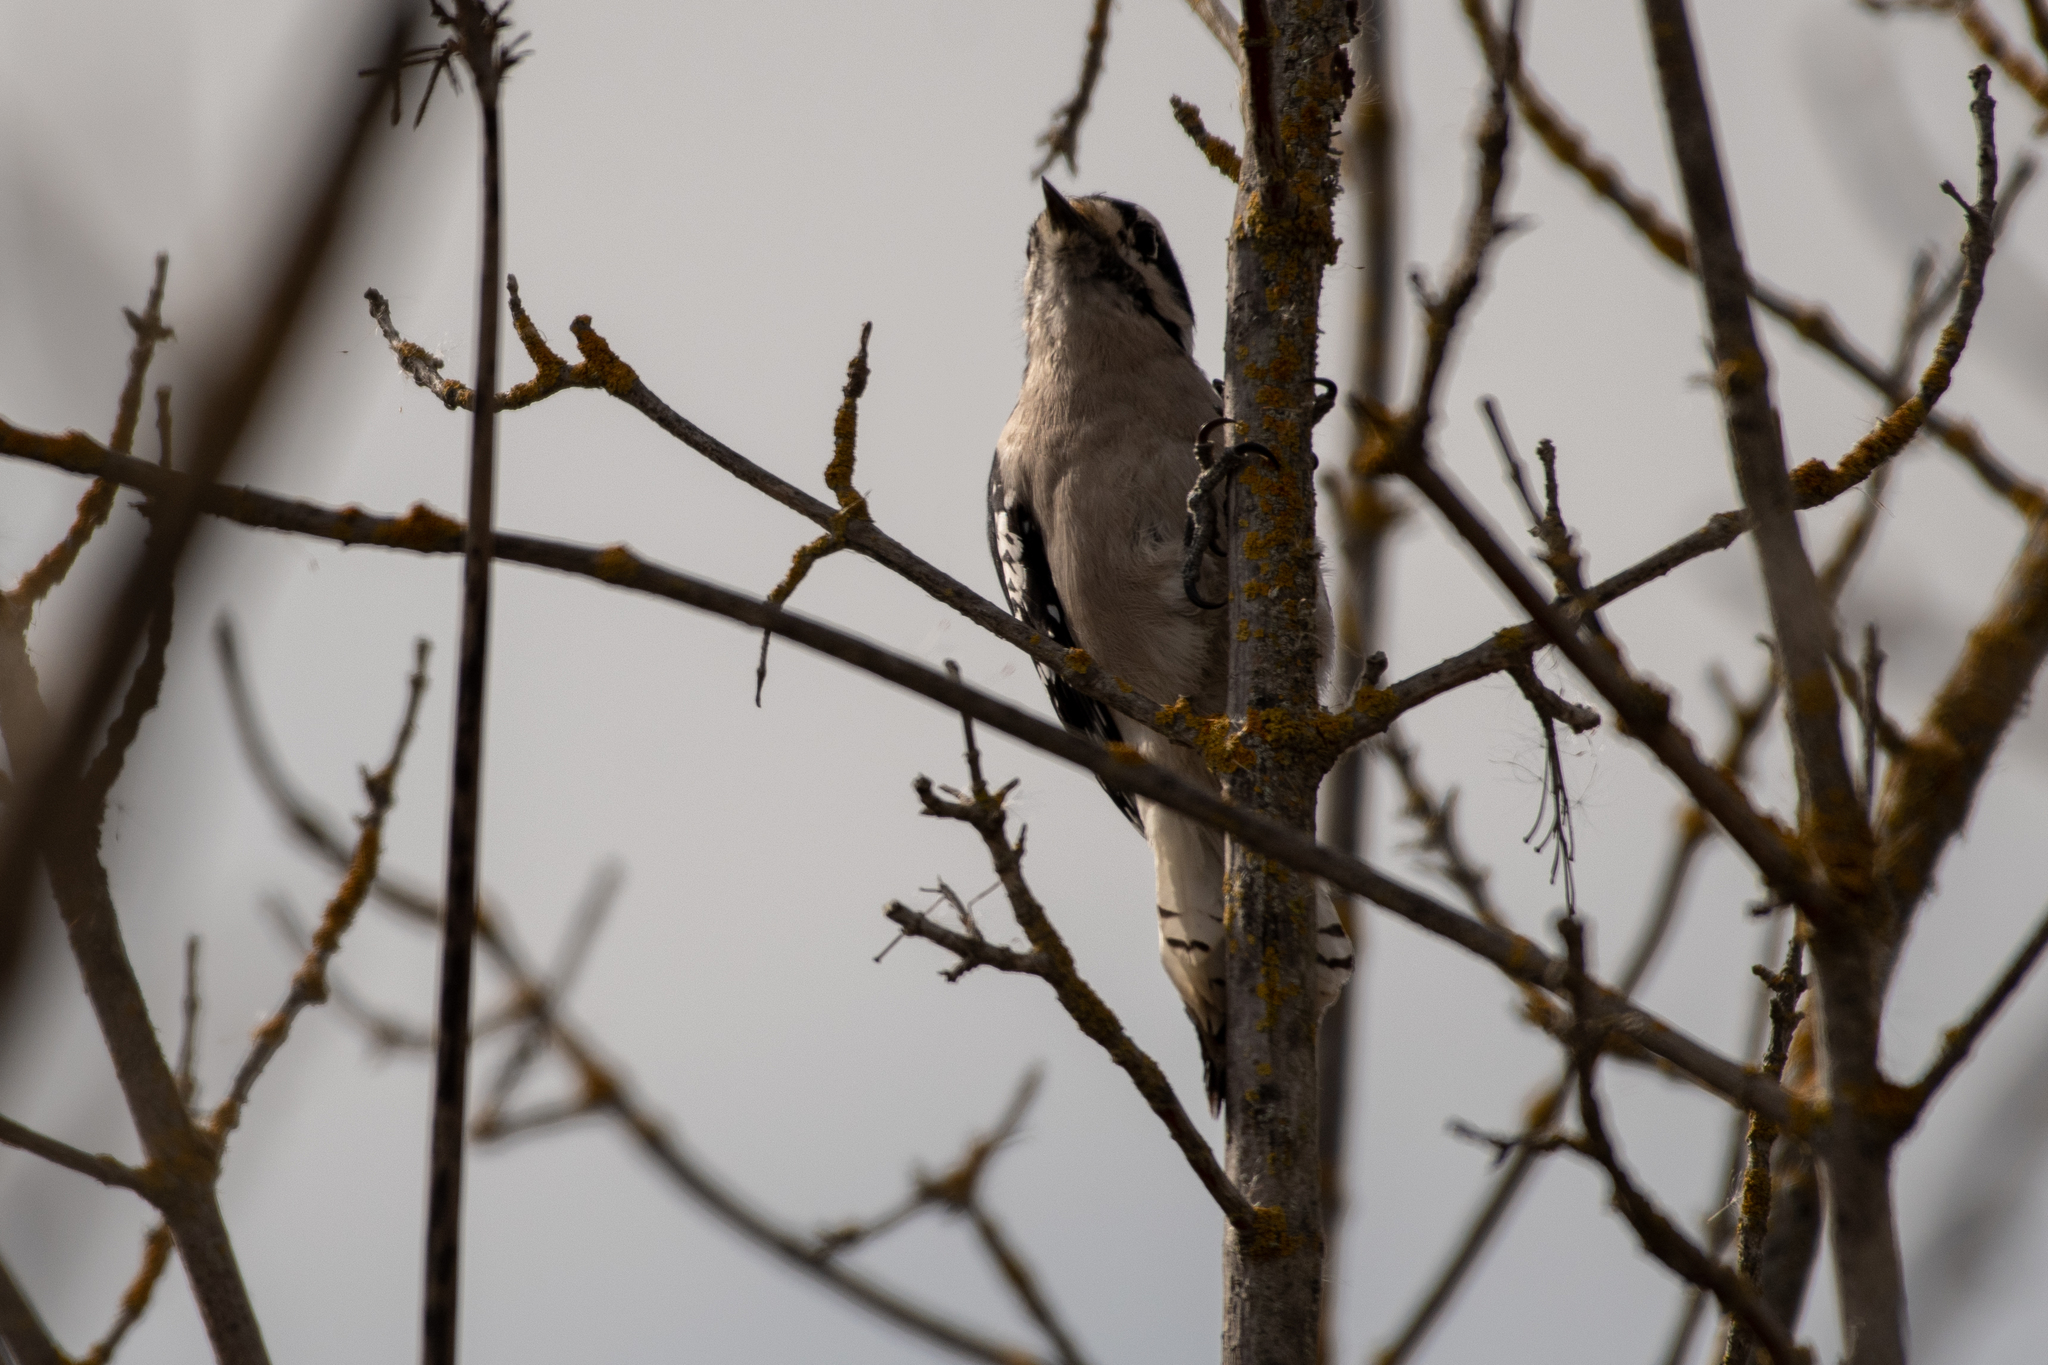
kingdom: Animalia
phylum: Chordata
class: Aves
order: Piciformes
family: Picidae
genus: Dryobates
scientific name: Dryobates pubescens
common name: Downy woodpecker
